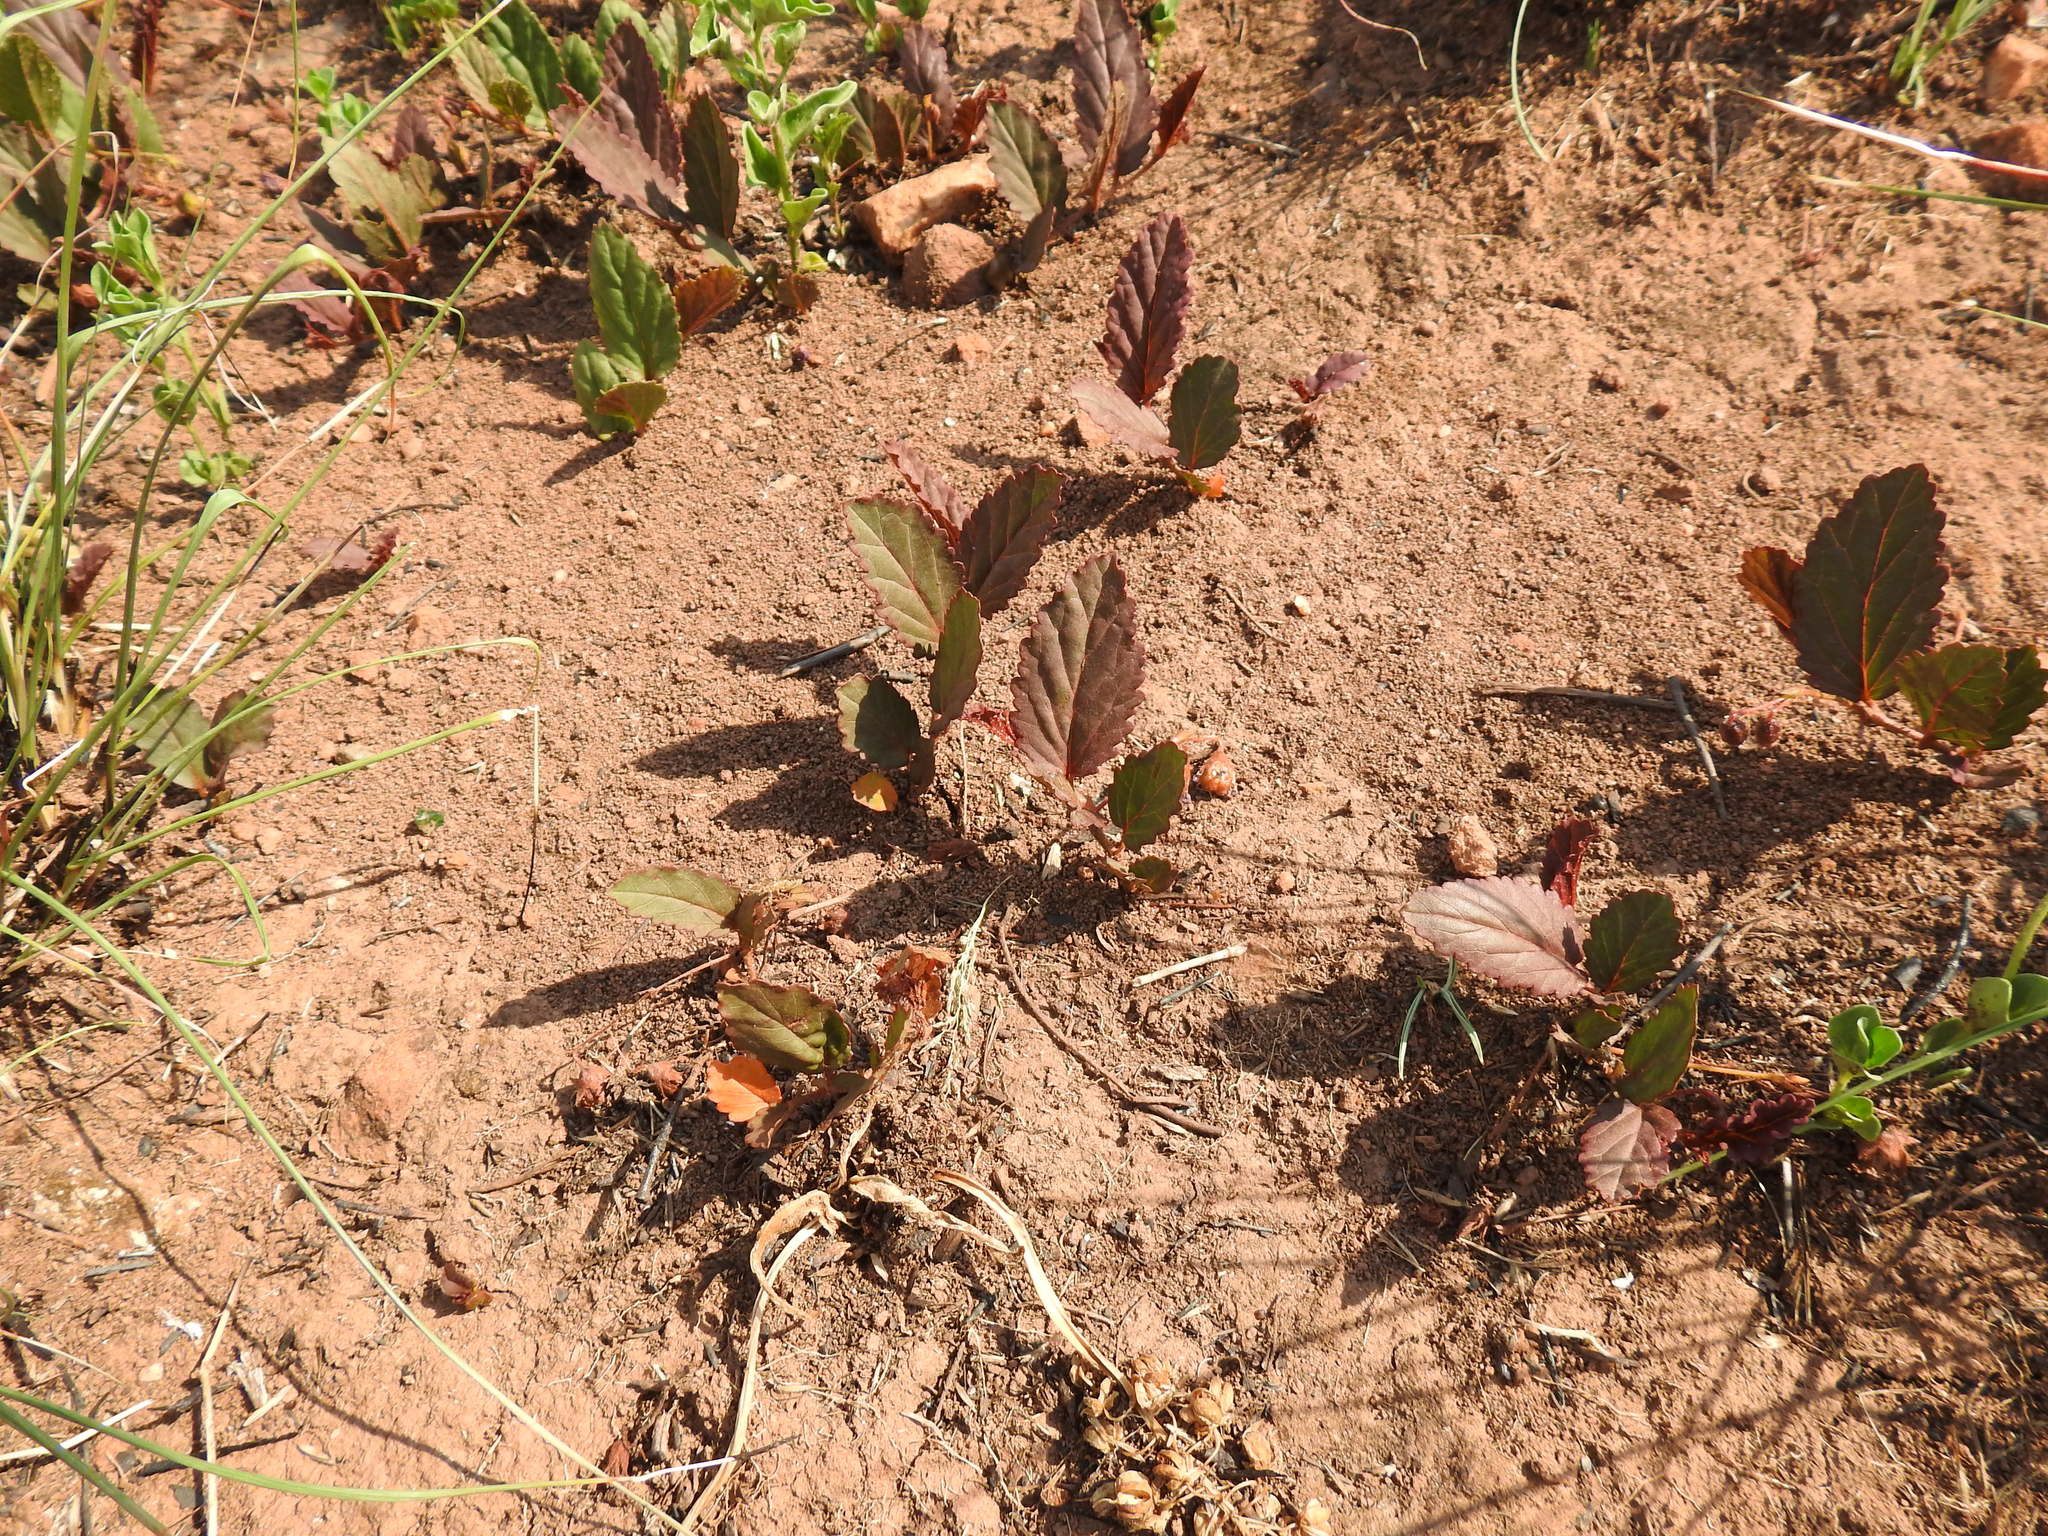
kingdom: Plantae
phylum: Tracheophyta
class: Magnoliopsida
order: Malvales
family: Malvaceae
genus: Hermannia
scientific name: Hermannia depressa
